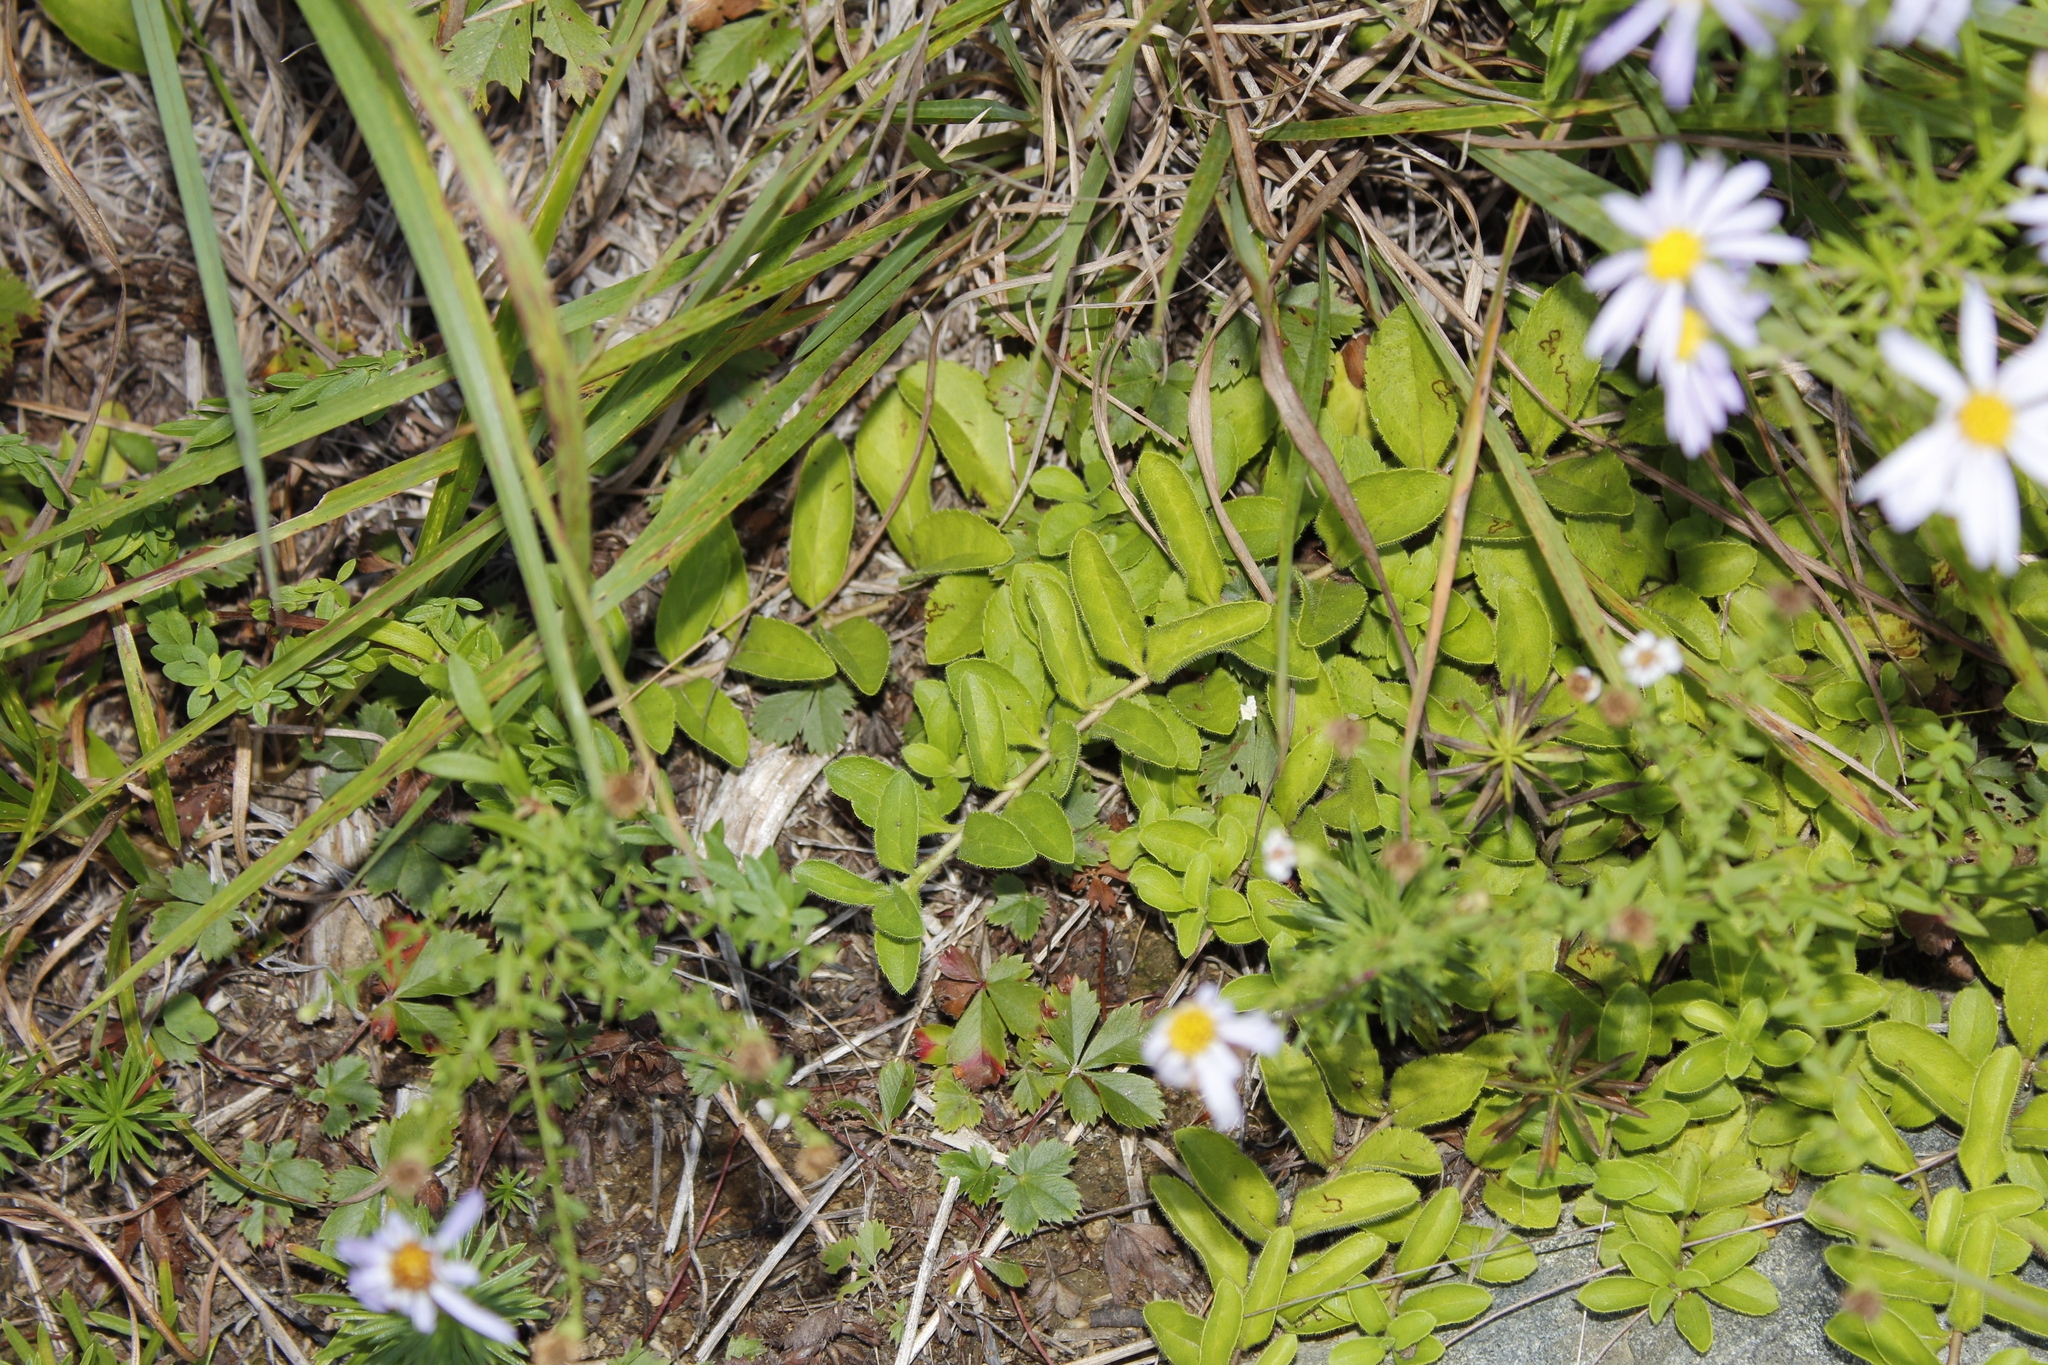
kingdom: Plantae
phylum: Tracheophyta
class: Magnoliopsida
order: Lamiales
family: Plantaginaceae
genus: Veronica
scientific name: Veronica officinalis
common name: Common speedwell
